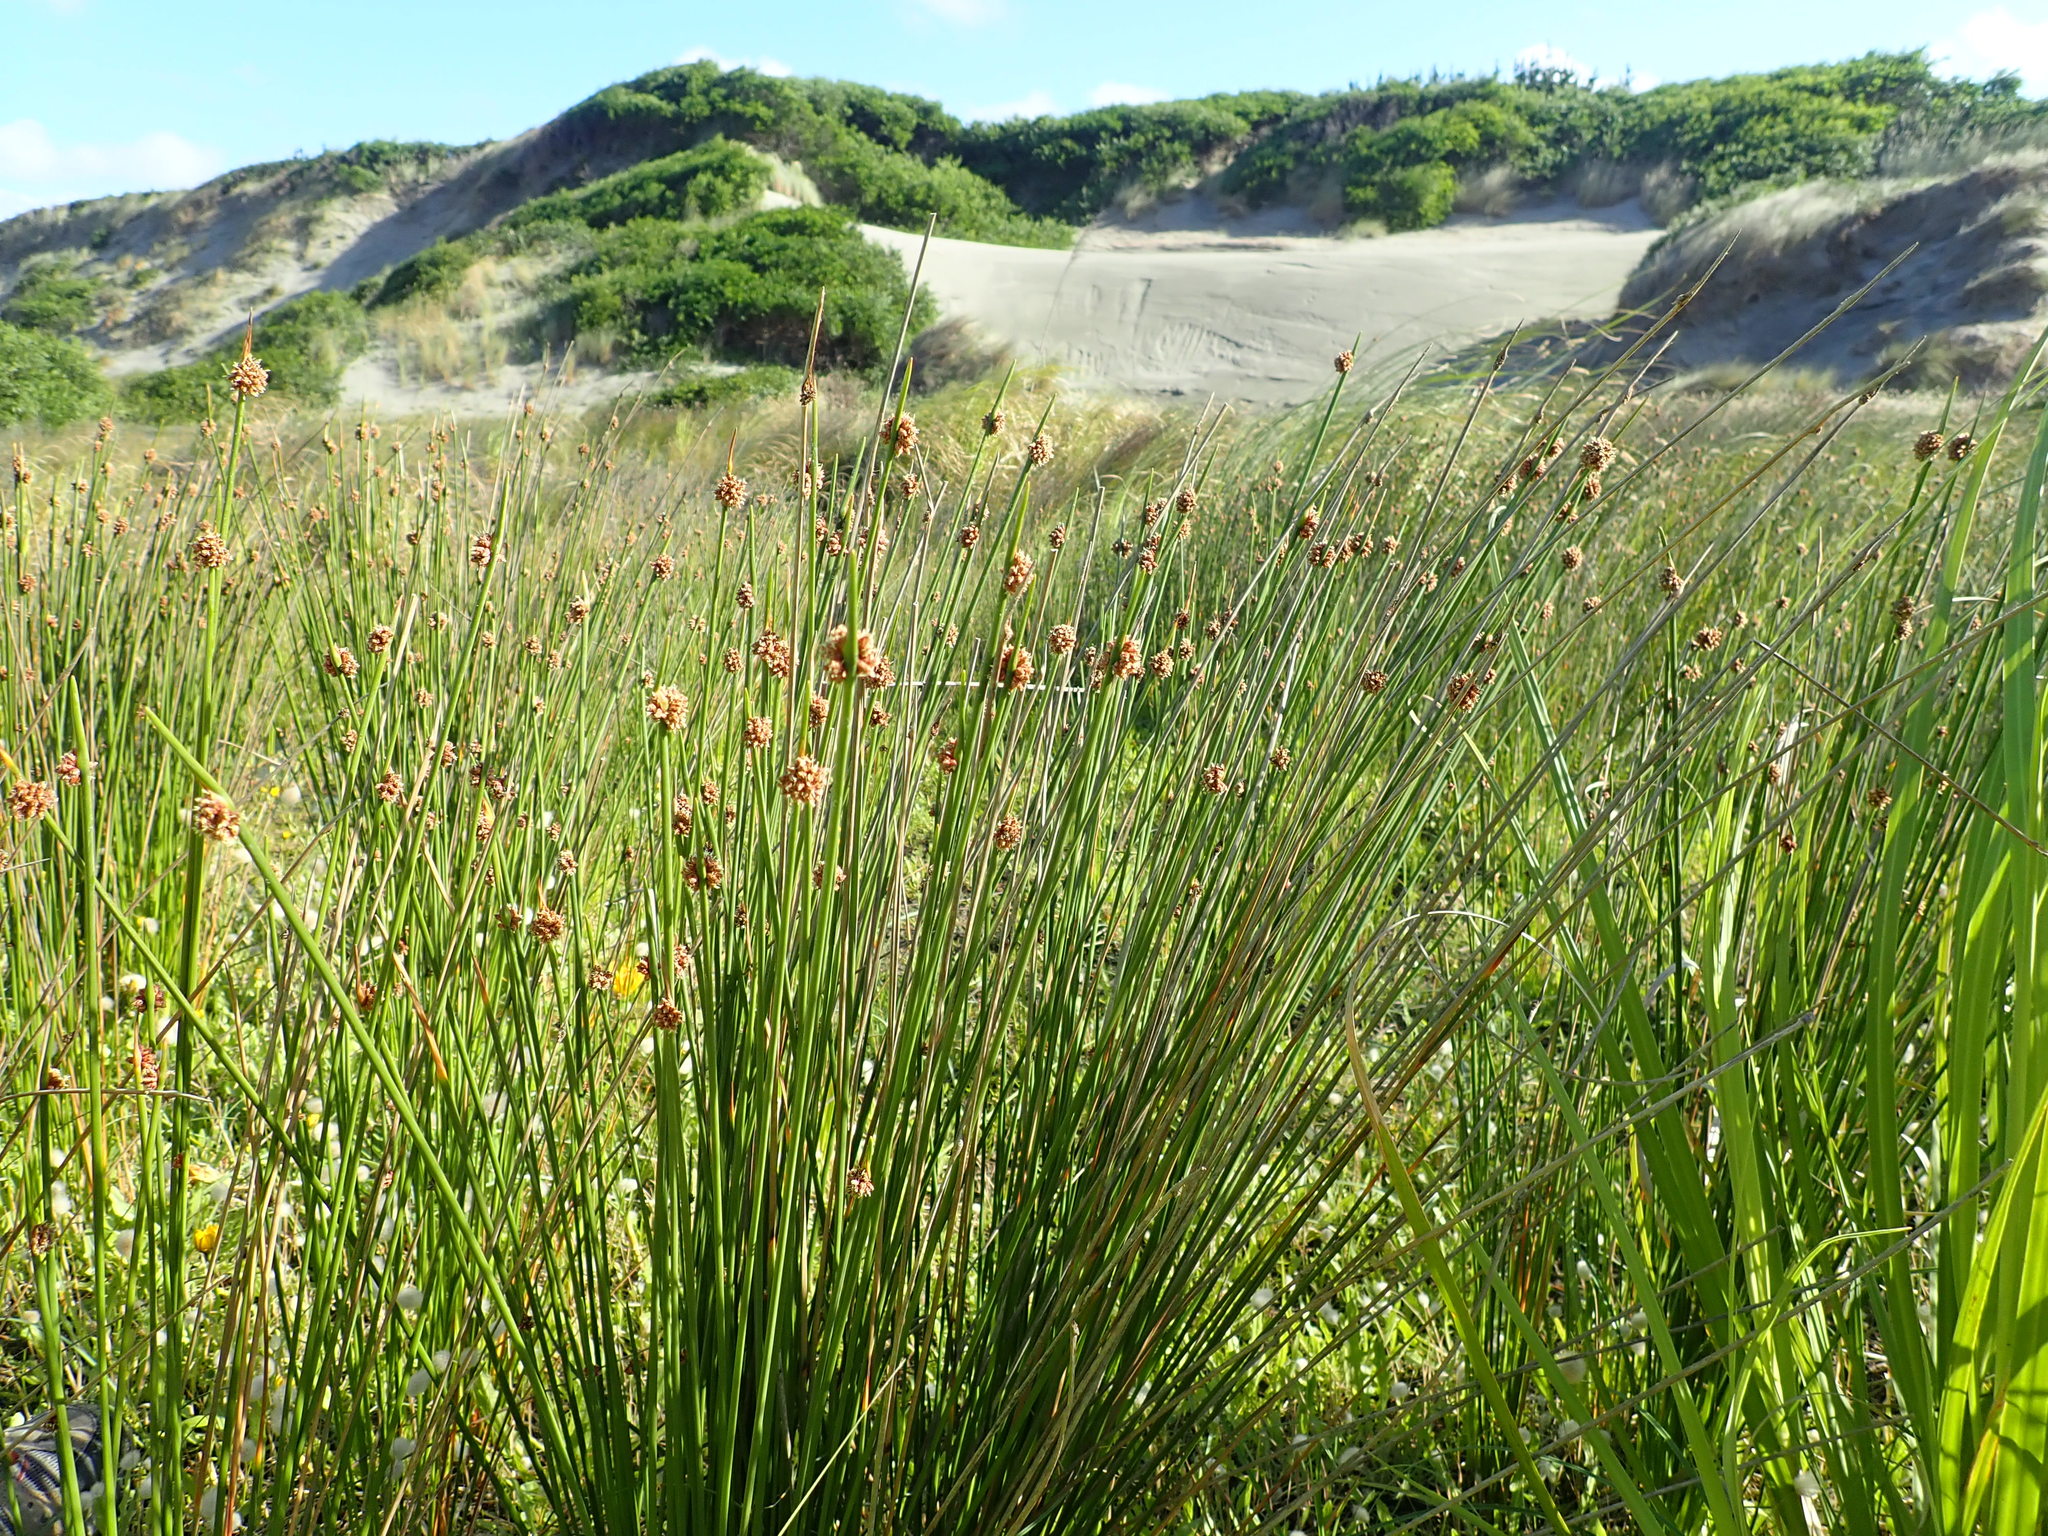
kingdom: Plantae
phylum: Tracheophyta
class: Liliopsida
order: Poales
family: Cyperaceae
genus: Ficinia
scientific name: Ficinia nodosa
